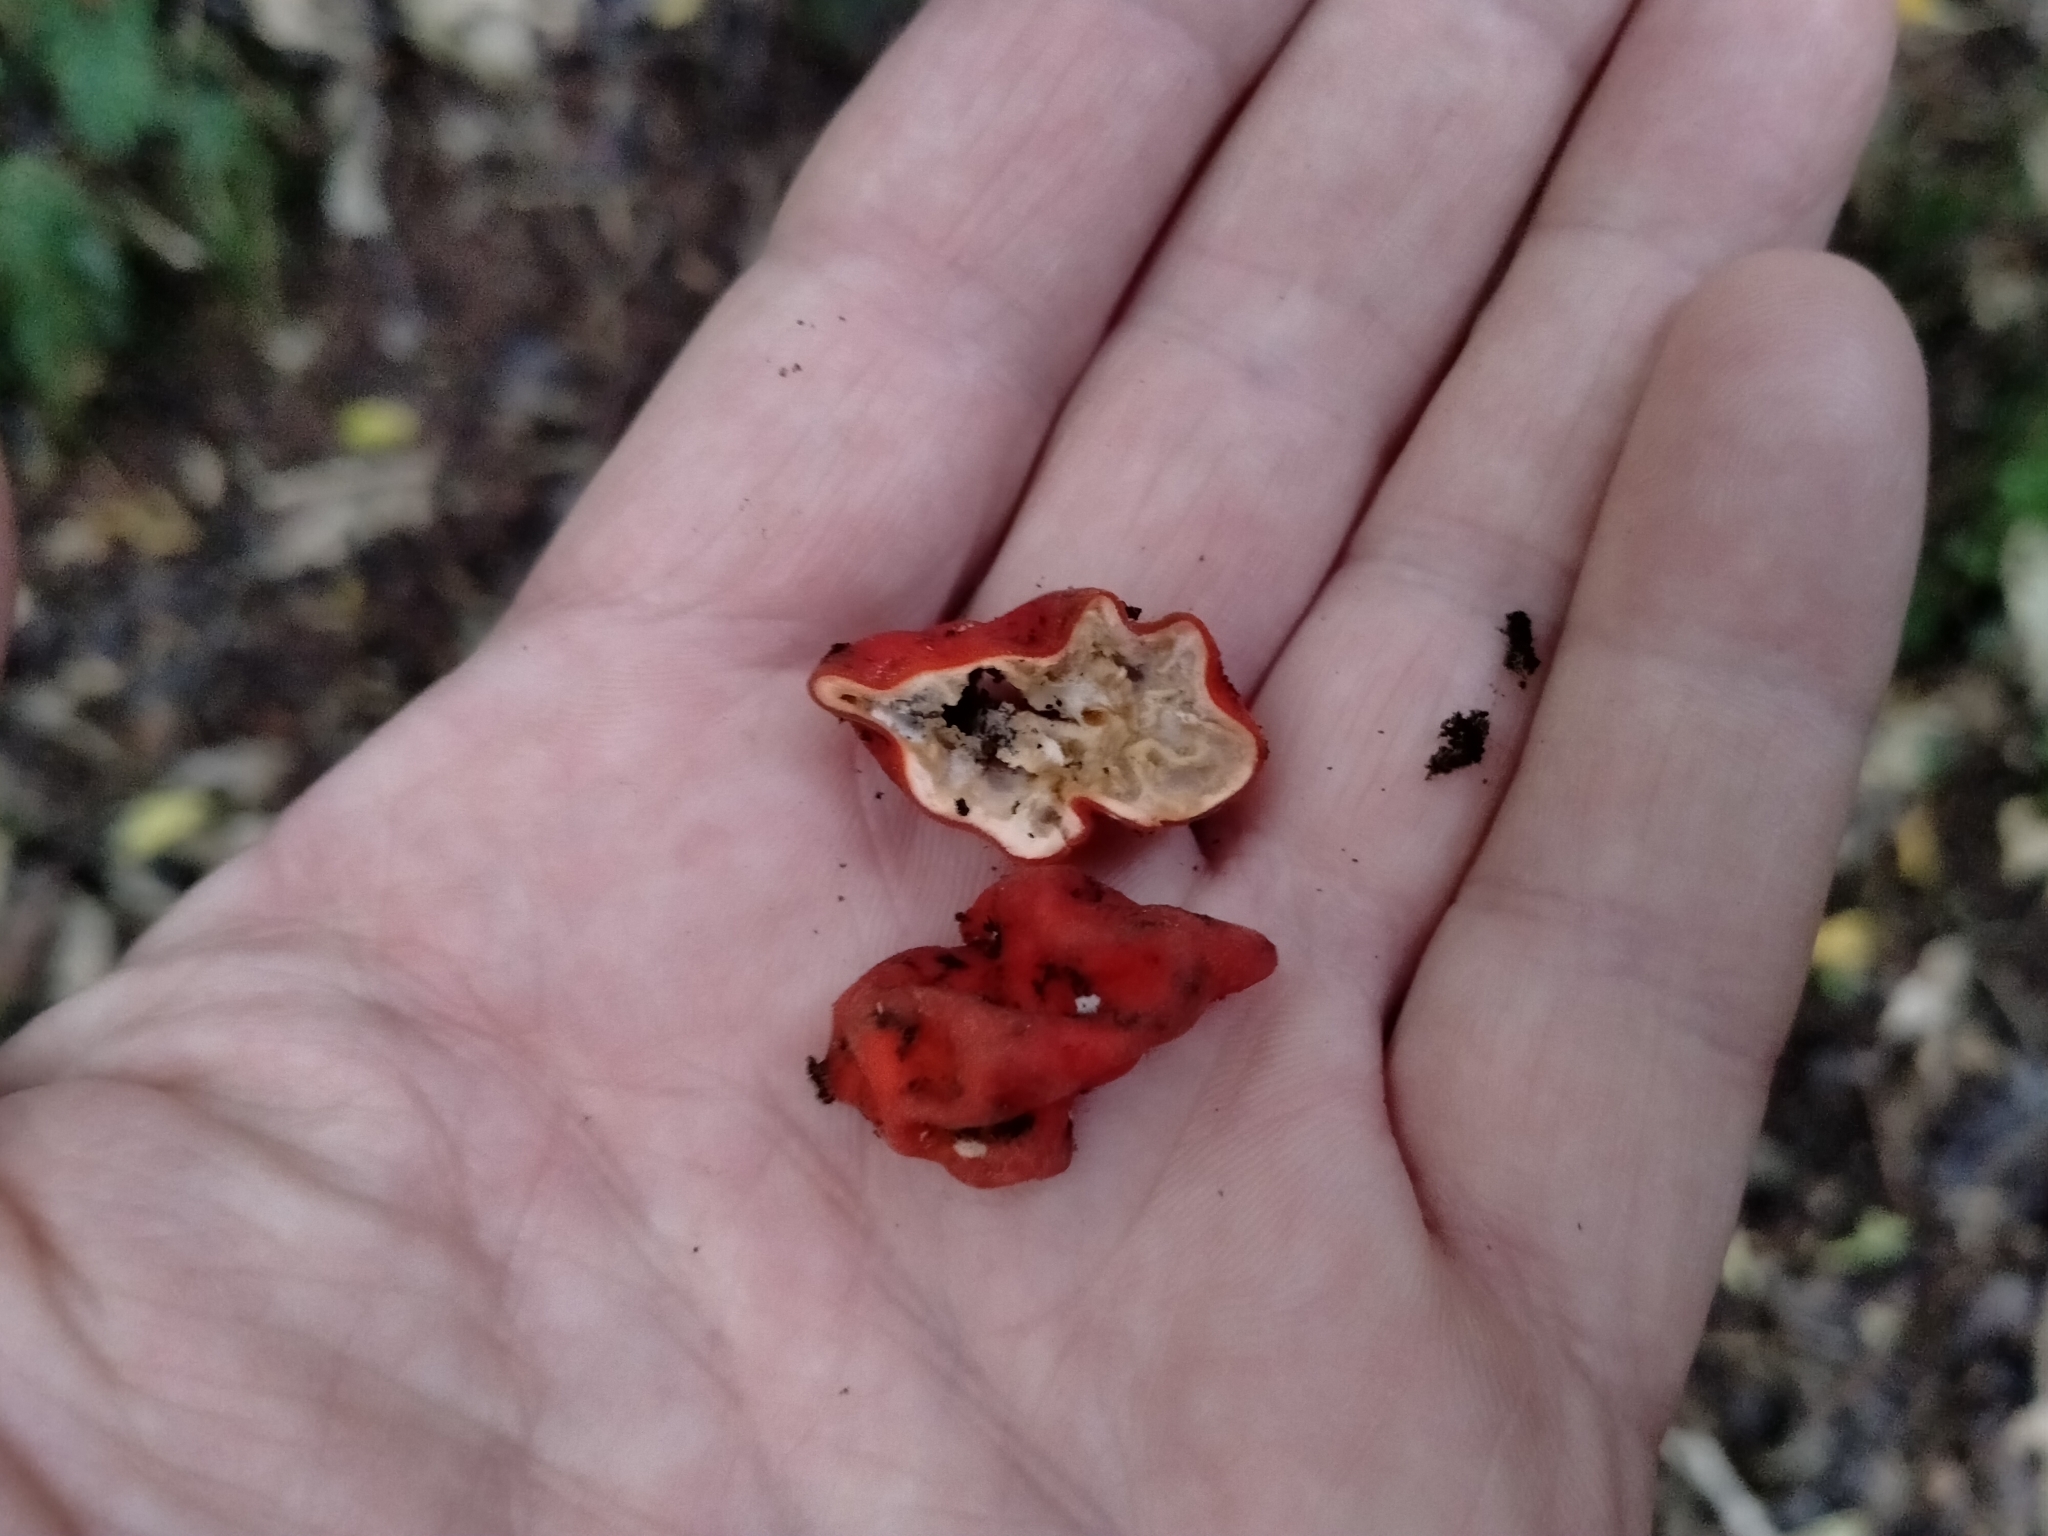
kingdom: Fungi
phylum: Ascomycota
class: Pezizomycetes
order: Pezizales
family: Pyronemataceae
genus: Paurocotylis
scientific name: Paurocotylis pila
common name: Scarlet berry truffle
